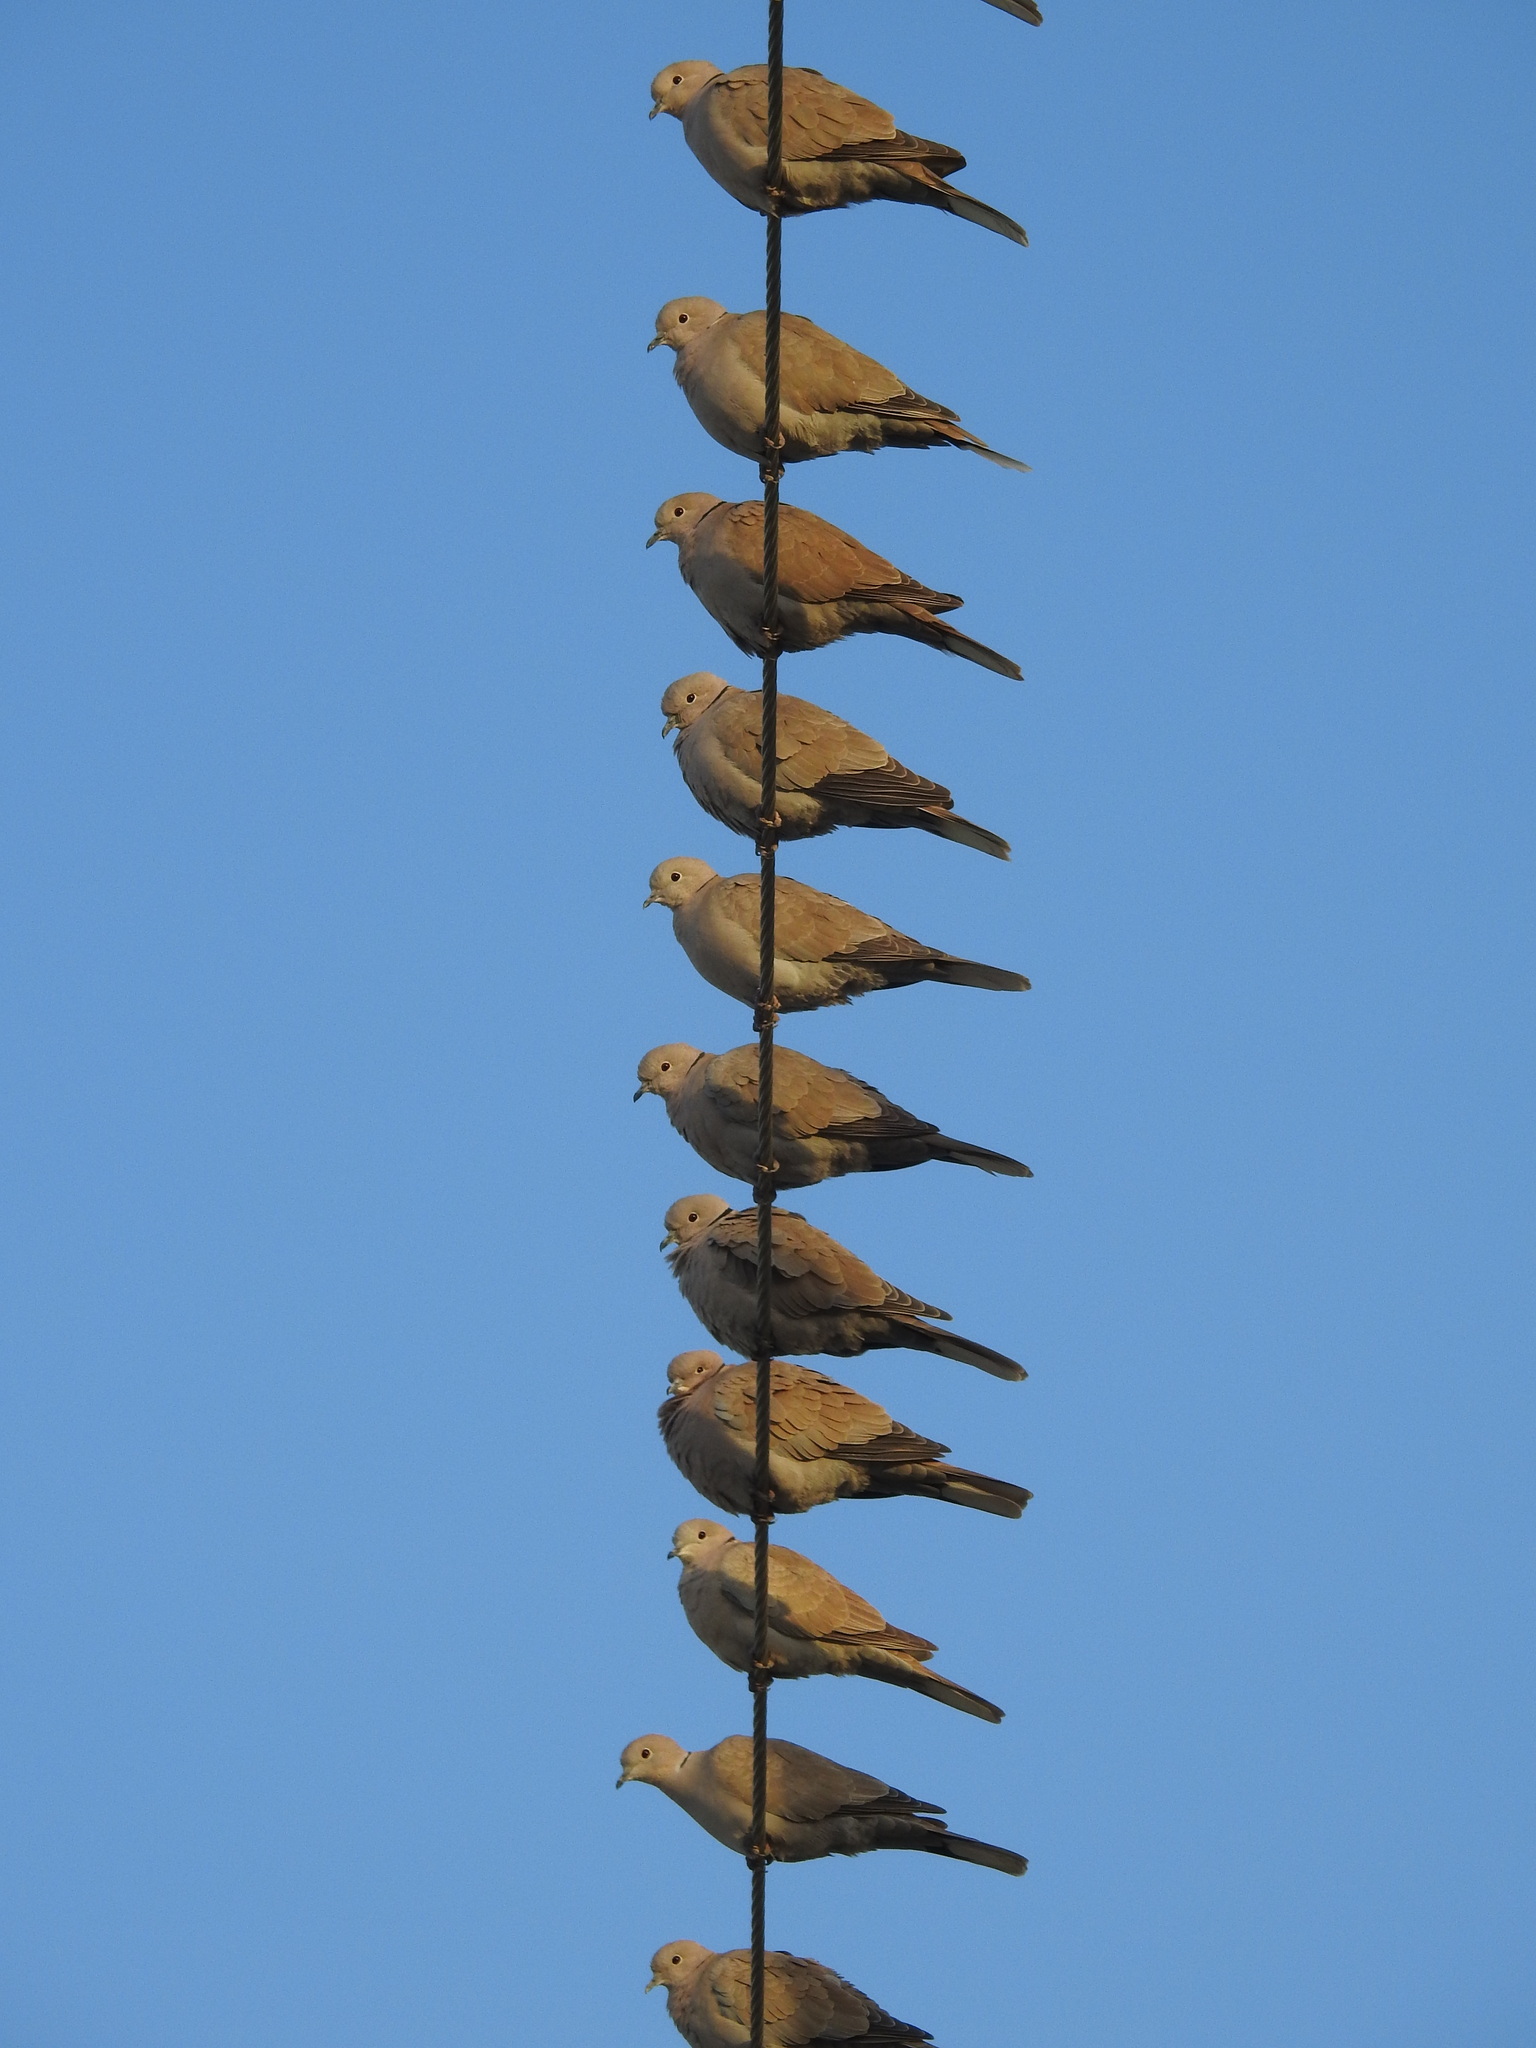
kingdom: Animalia
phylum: Chordata
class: Aves
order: Columbiformes
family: Columbidae
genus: Streptopelia
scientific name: Streptopelia decaocto
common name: Eurasian collared dove
